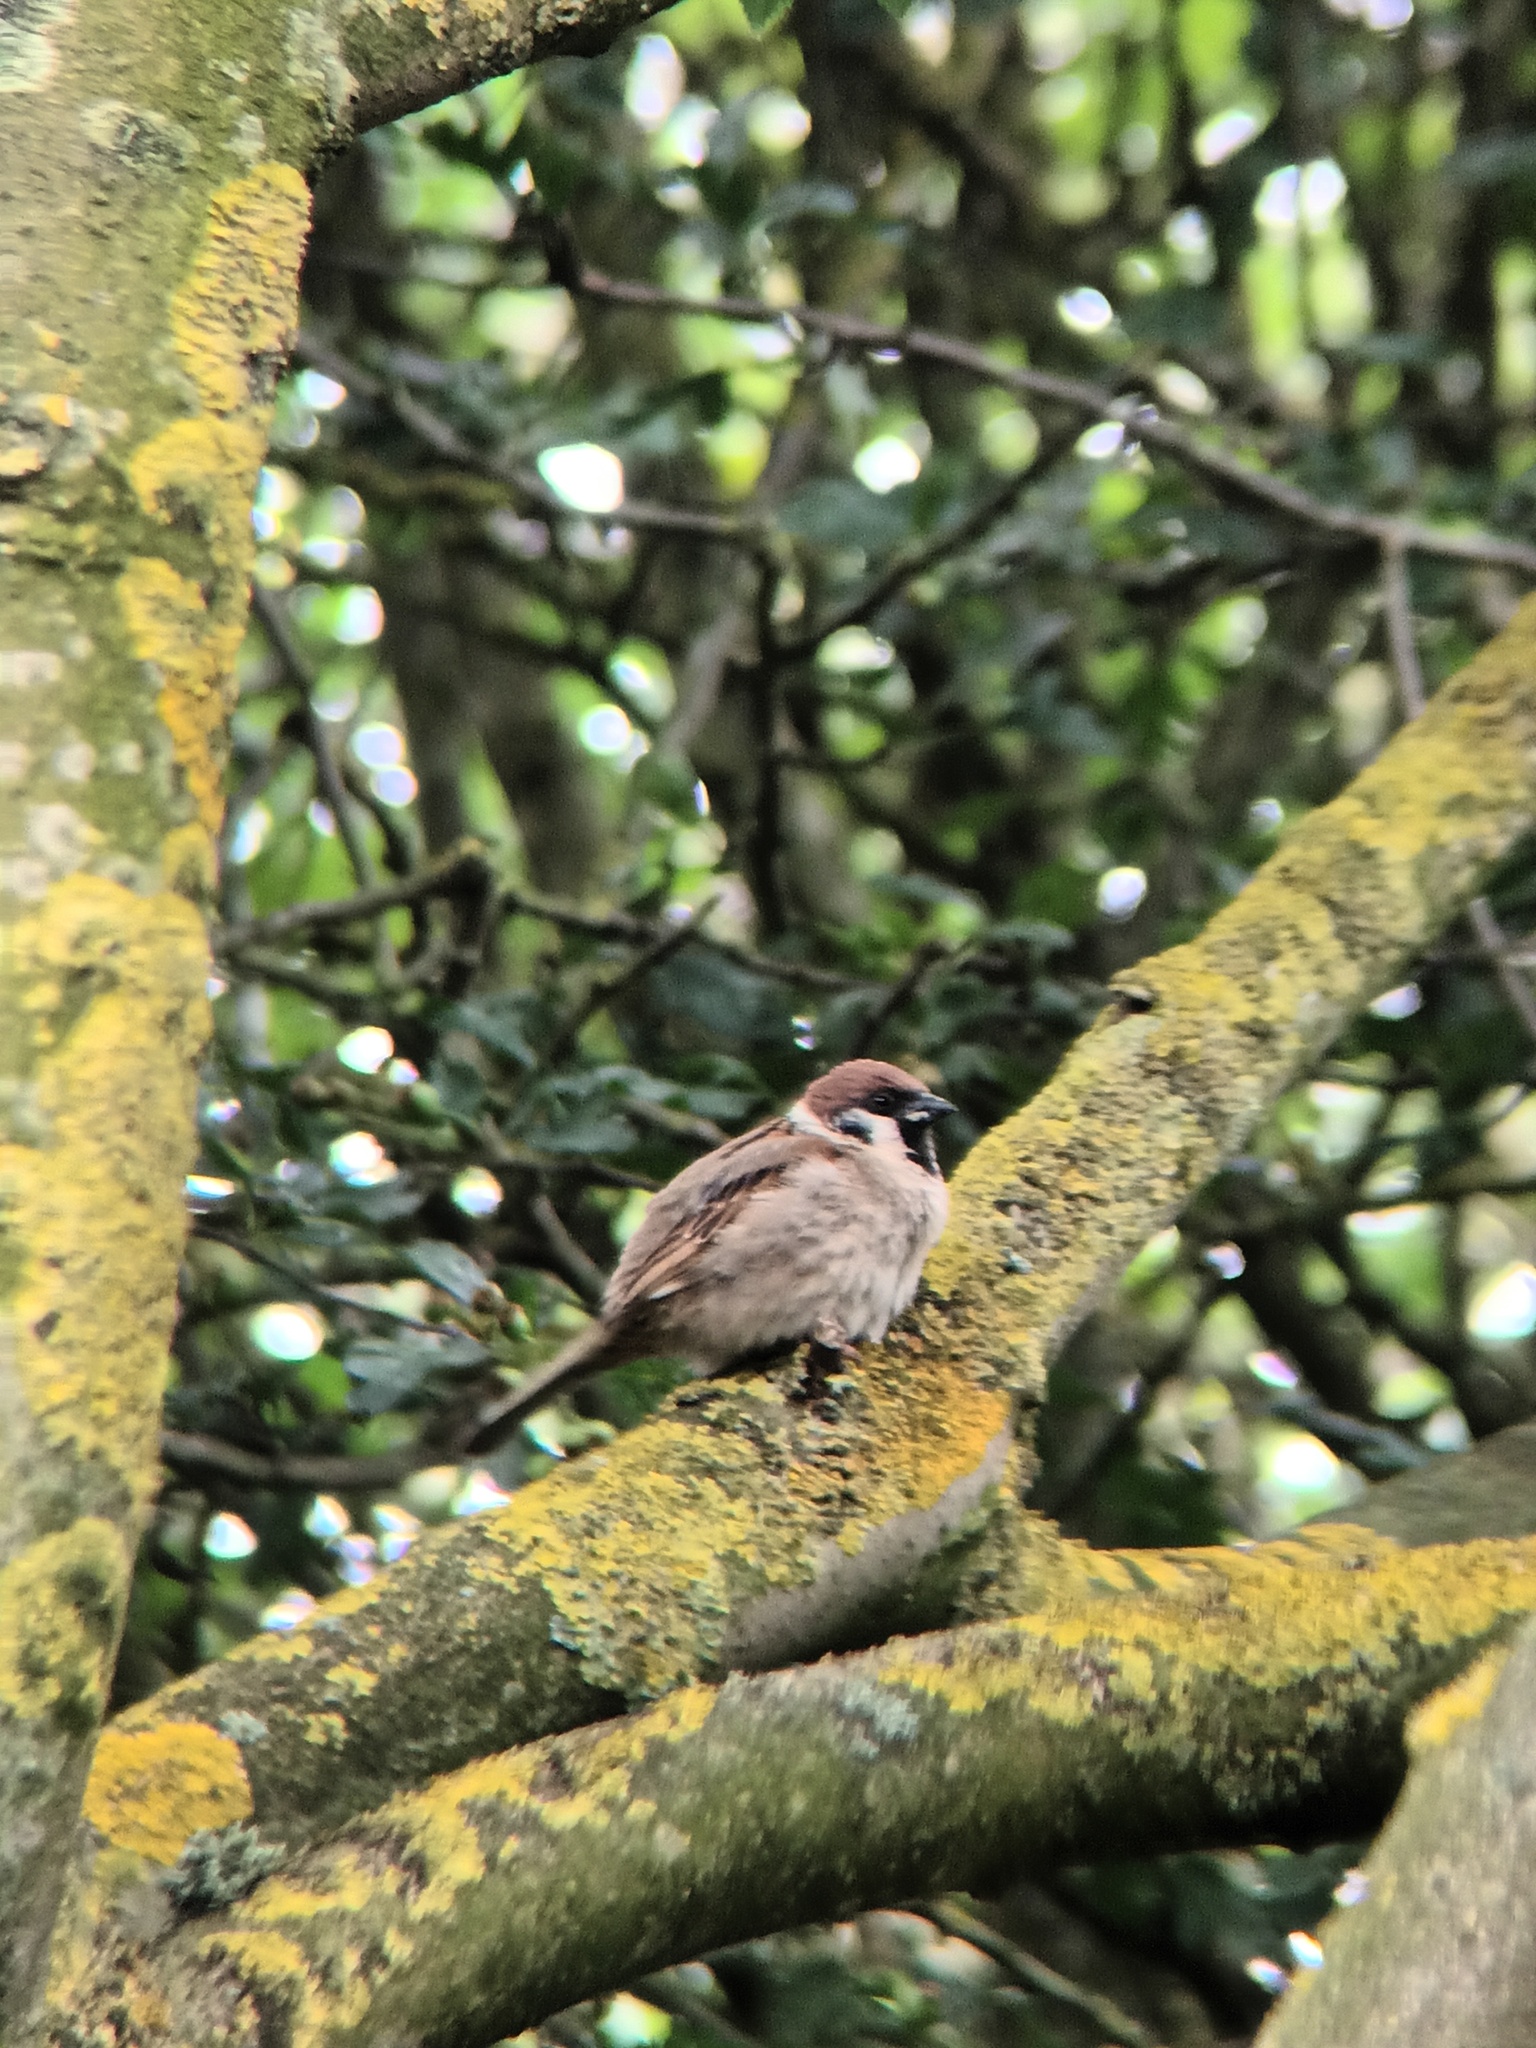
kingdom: Animalia
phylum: Chordata
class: Aves
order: Passeriformes
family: Passeridae
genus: Passer
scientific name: Passer montanus
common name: Eurasian tree sparrow
